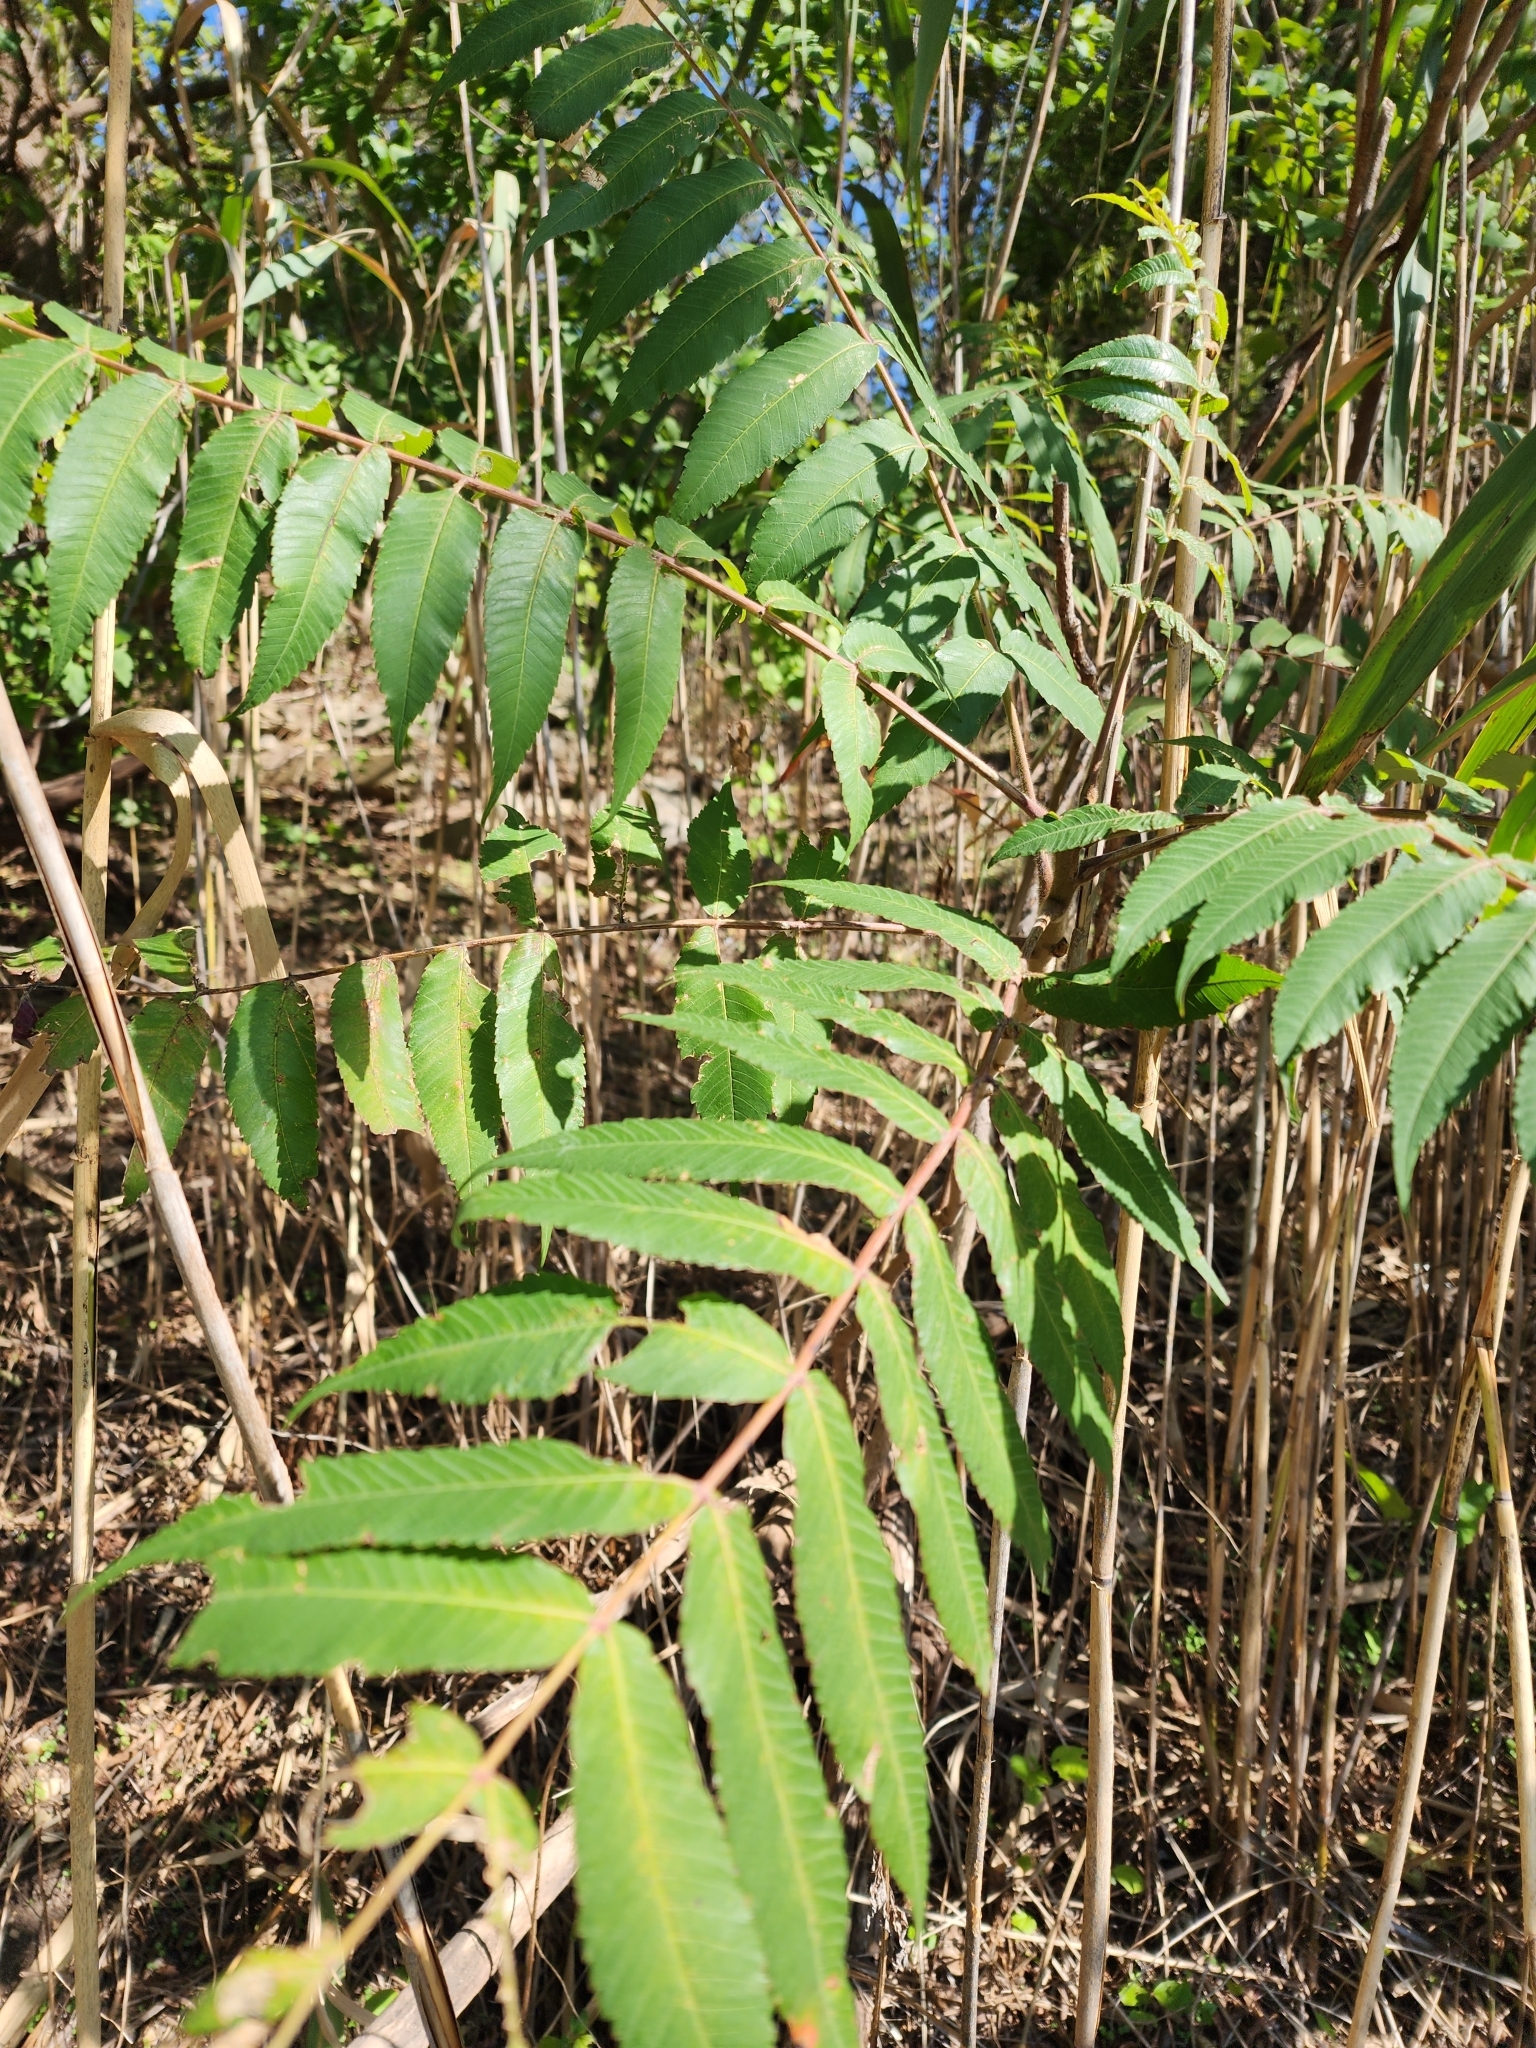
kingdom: Plantae
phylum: Tracheophyta
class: Magnoliopsida
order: Sapindales
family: Anacardiaceae
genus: Rhus
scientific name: Rhus typhina
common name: Staghorn sumac
